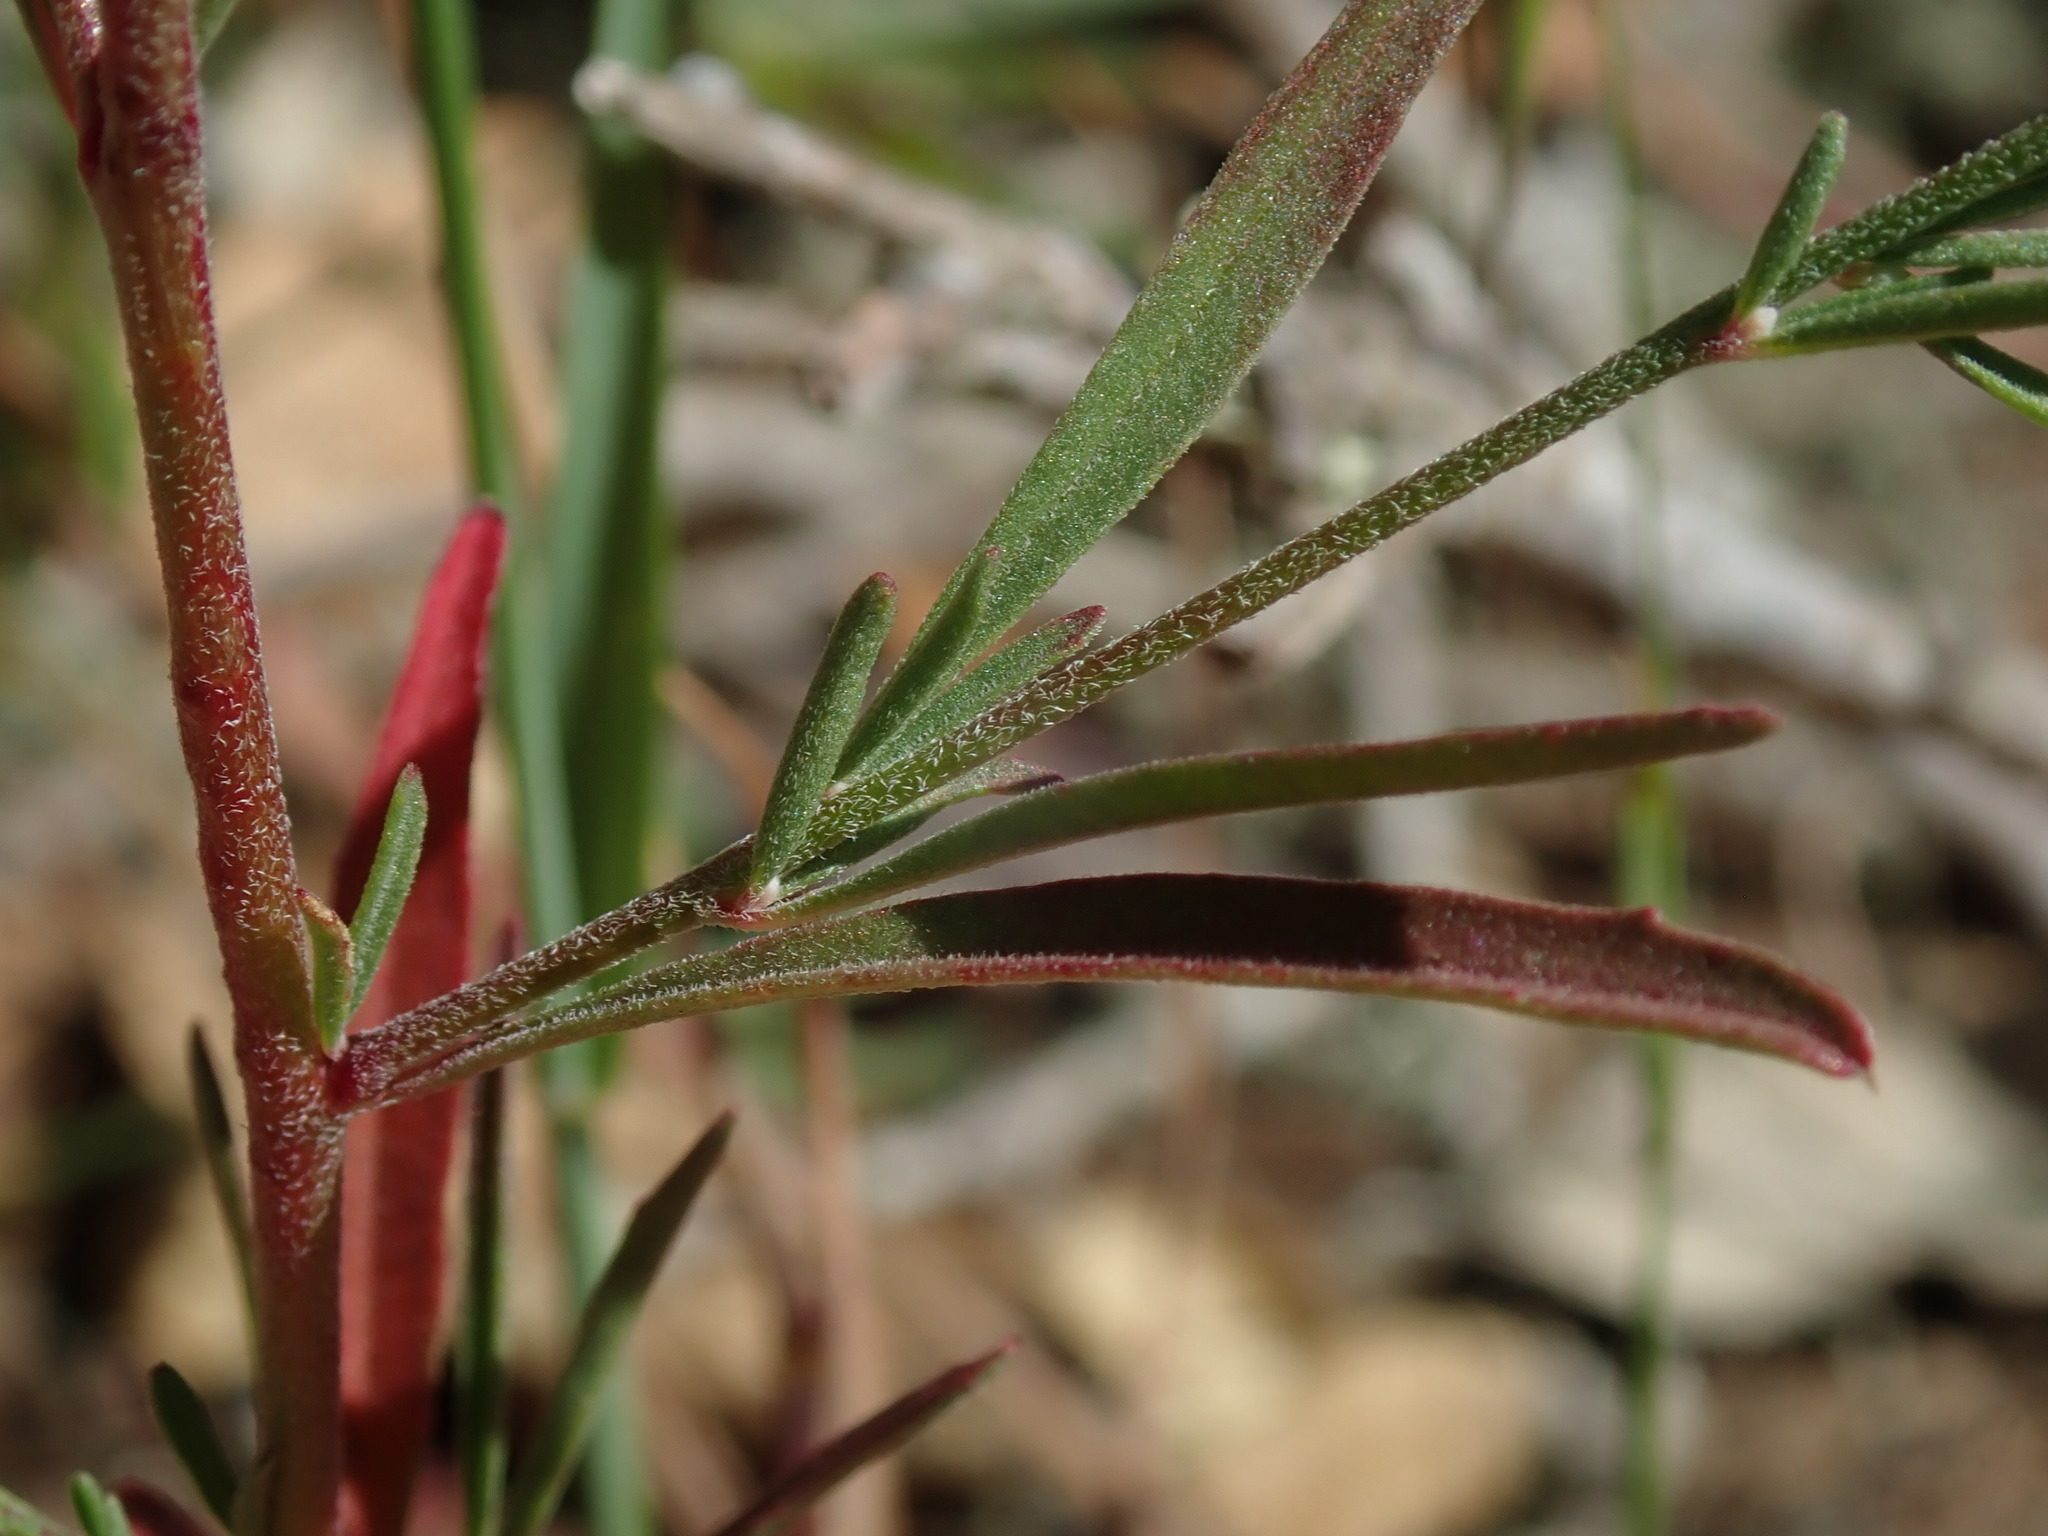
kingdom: Plantae
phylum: Tracheophyta
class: Magnoliopsida
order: Myrtales
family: Onagraceae
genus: Clarkia
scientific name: Clarkia lewisii
